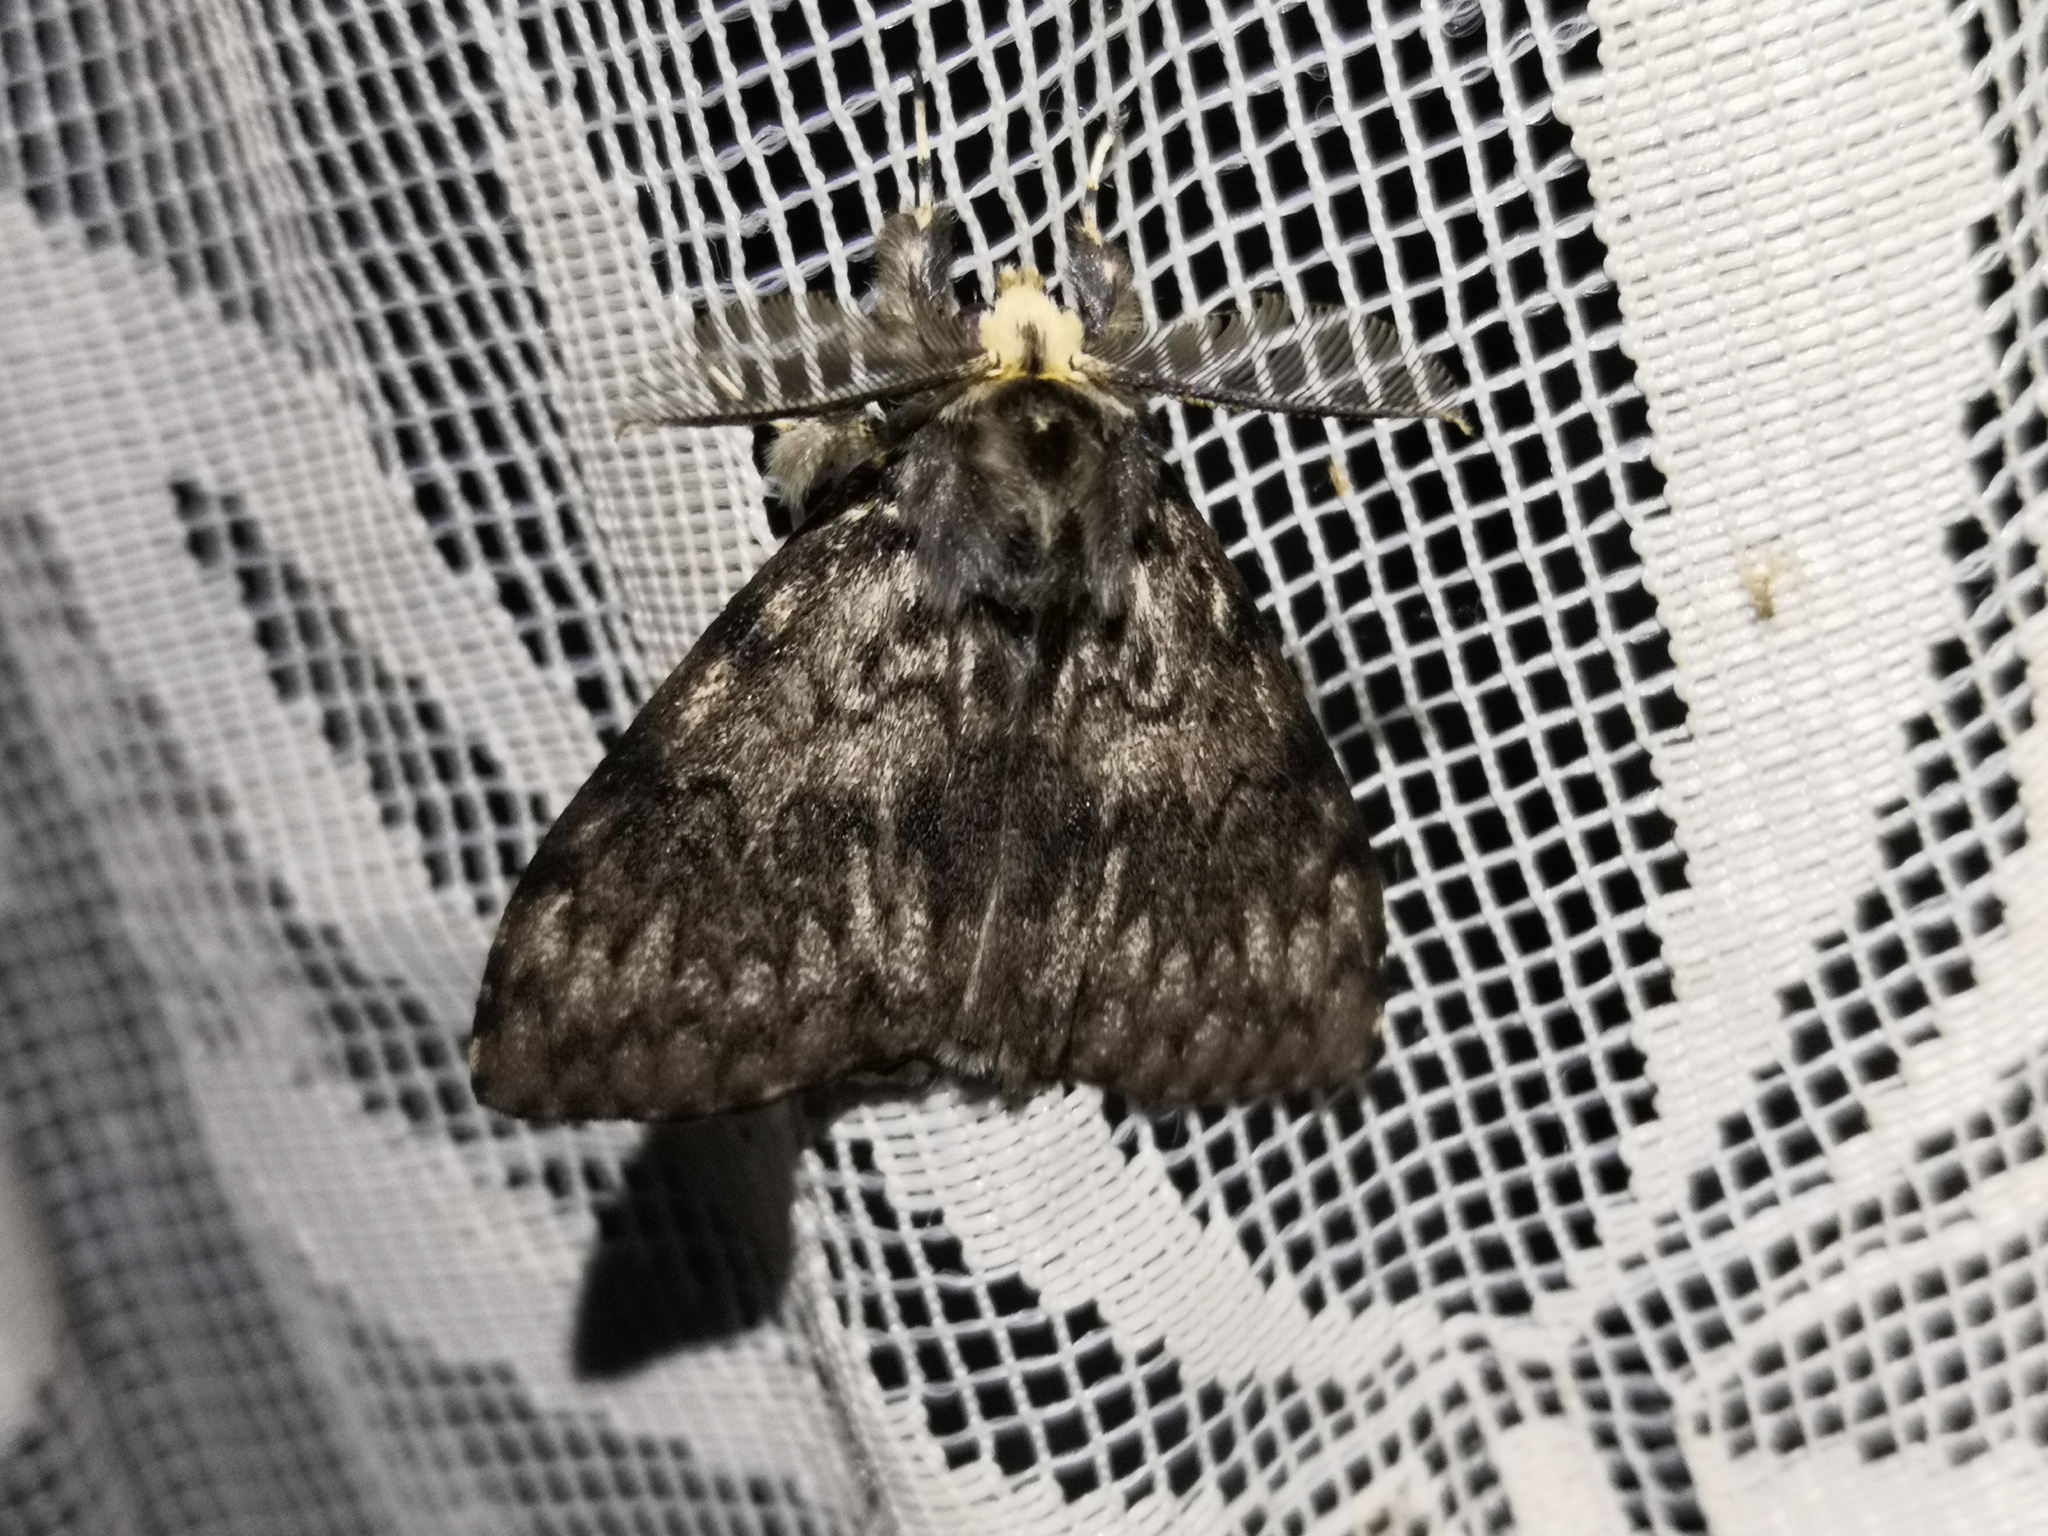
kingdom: Animalia
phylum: Arthropoda
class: Insecta
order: Lepidoptera
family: Erebidae
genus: Lymantria
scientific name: Lymantria monacha
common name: Black arches
